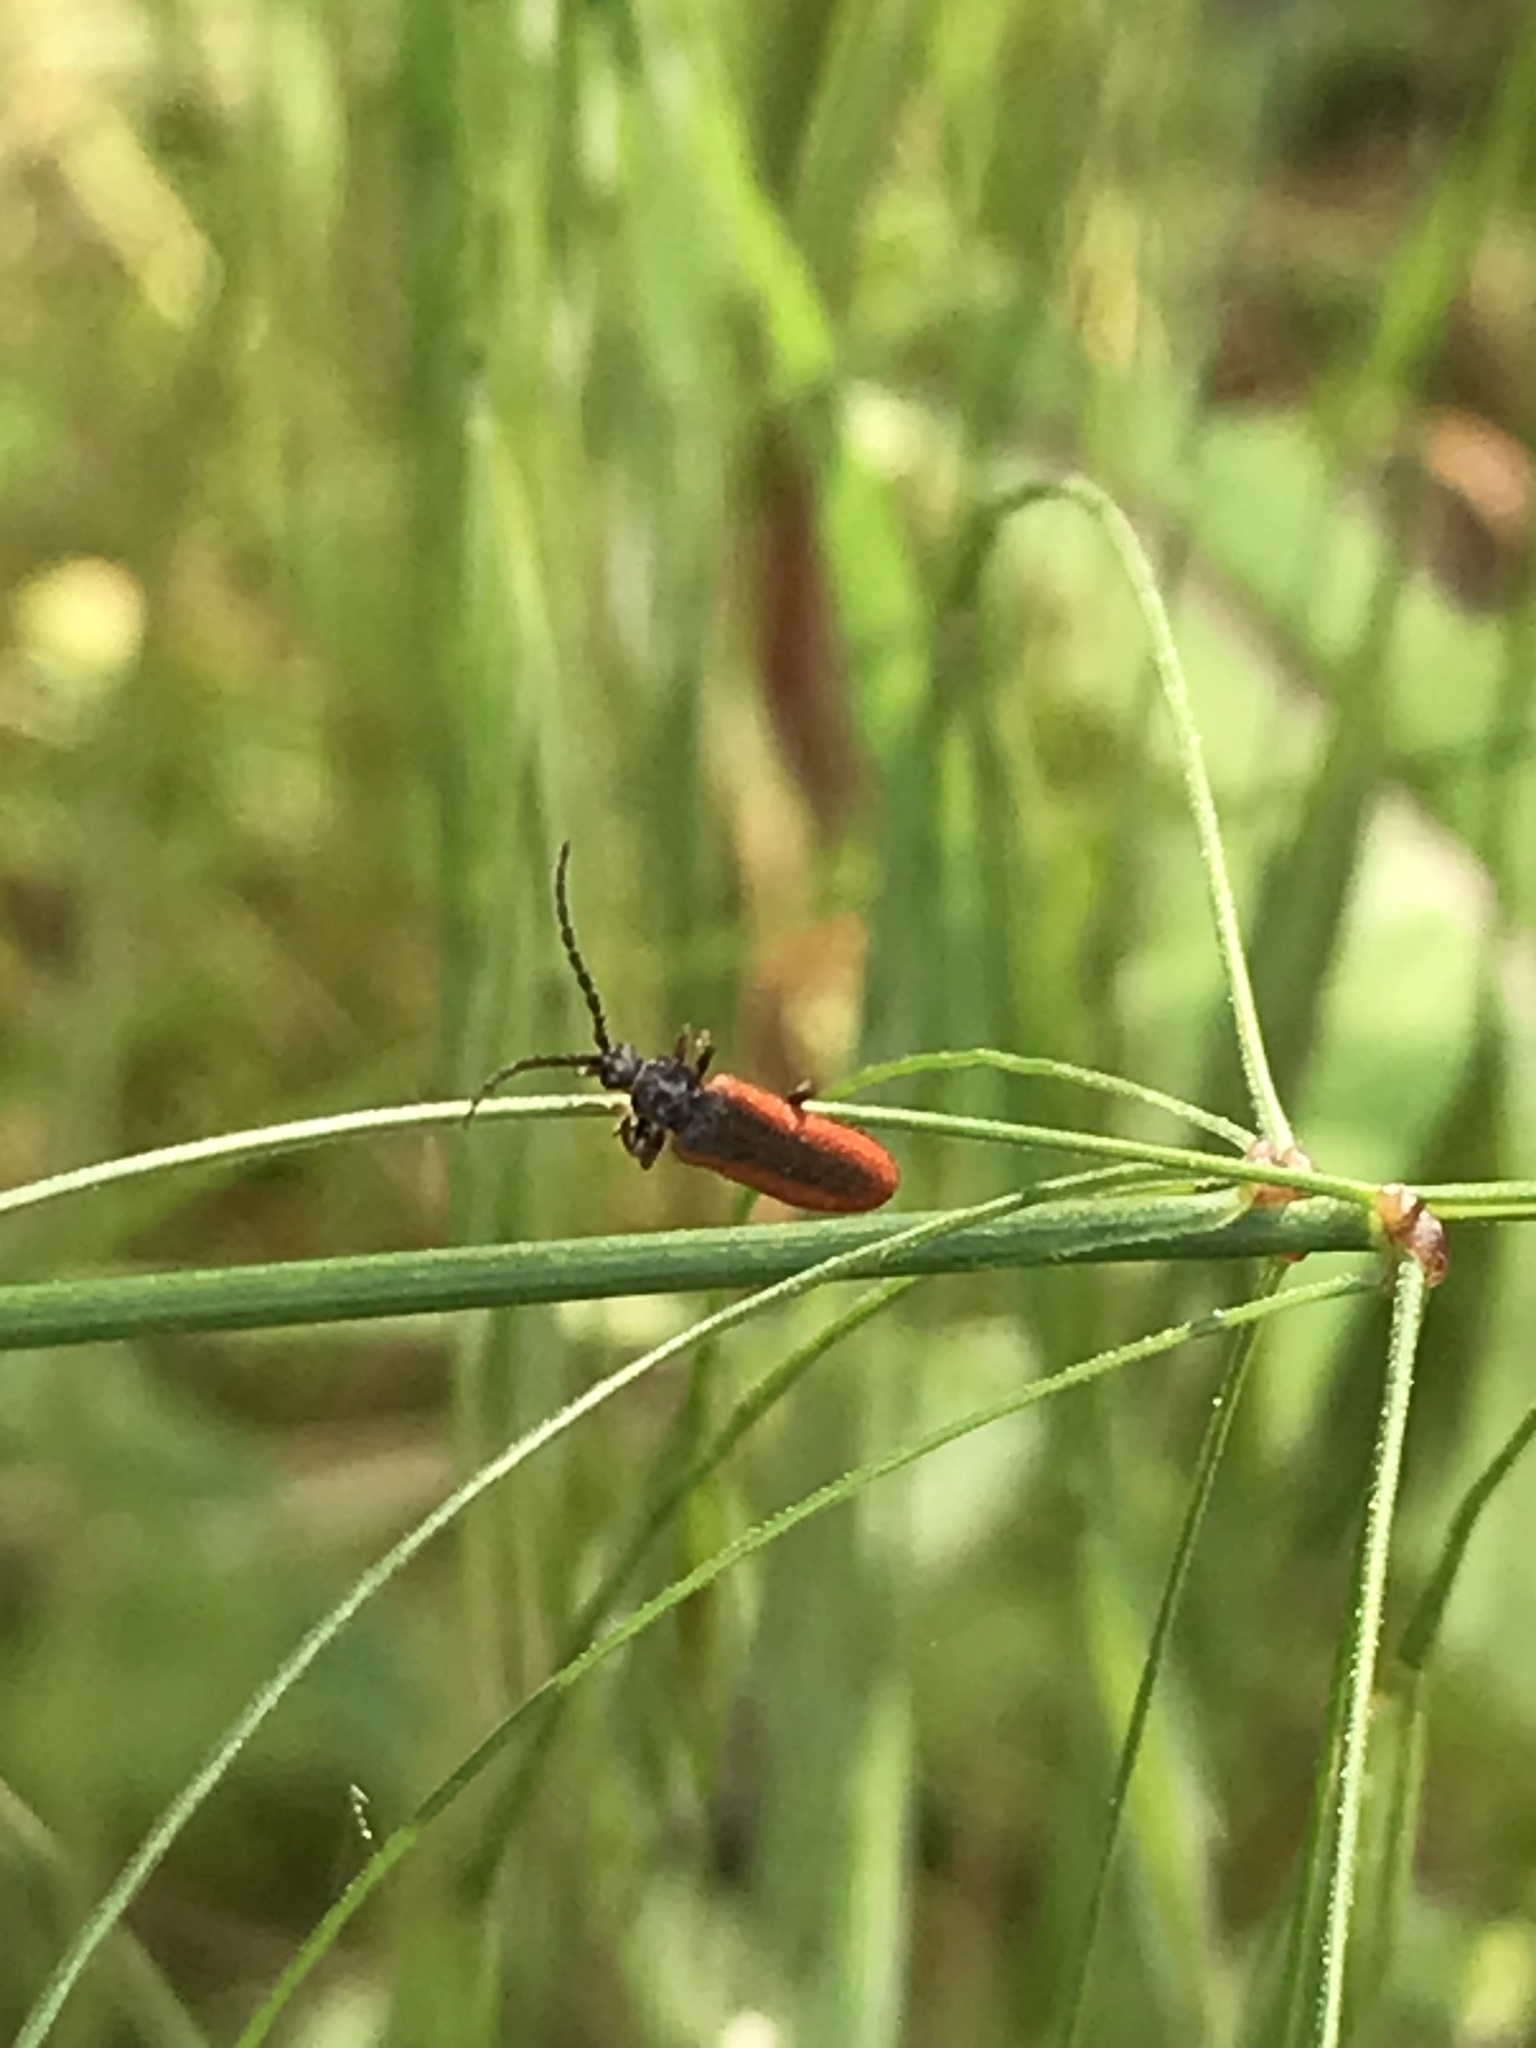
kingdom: Animalia
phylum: Arthropoda
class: Insecta
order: Coleoptera
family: Omalisidae
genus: Omalisus
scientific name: Omalisus fontisbellaquei
